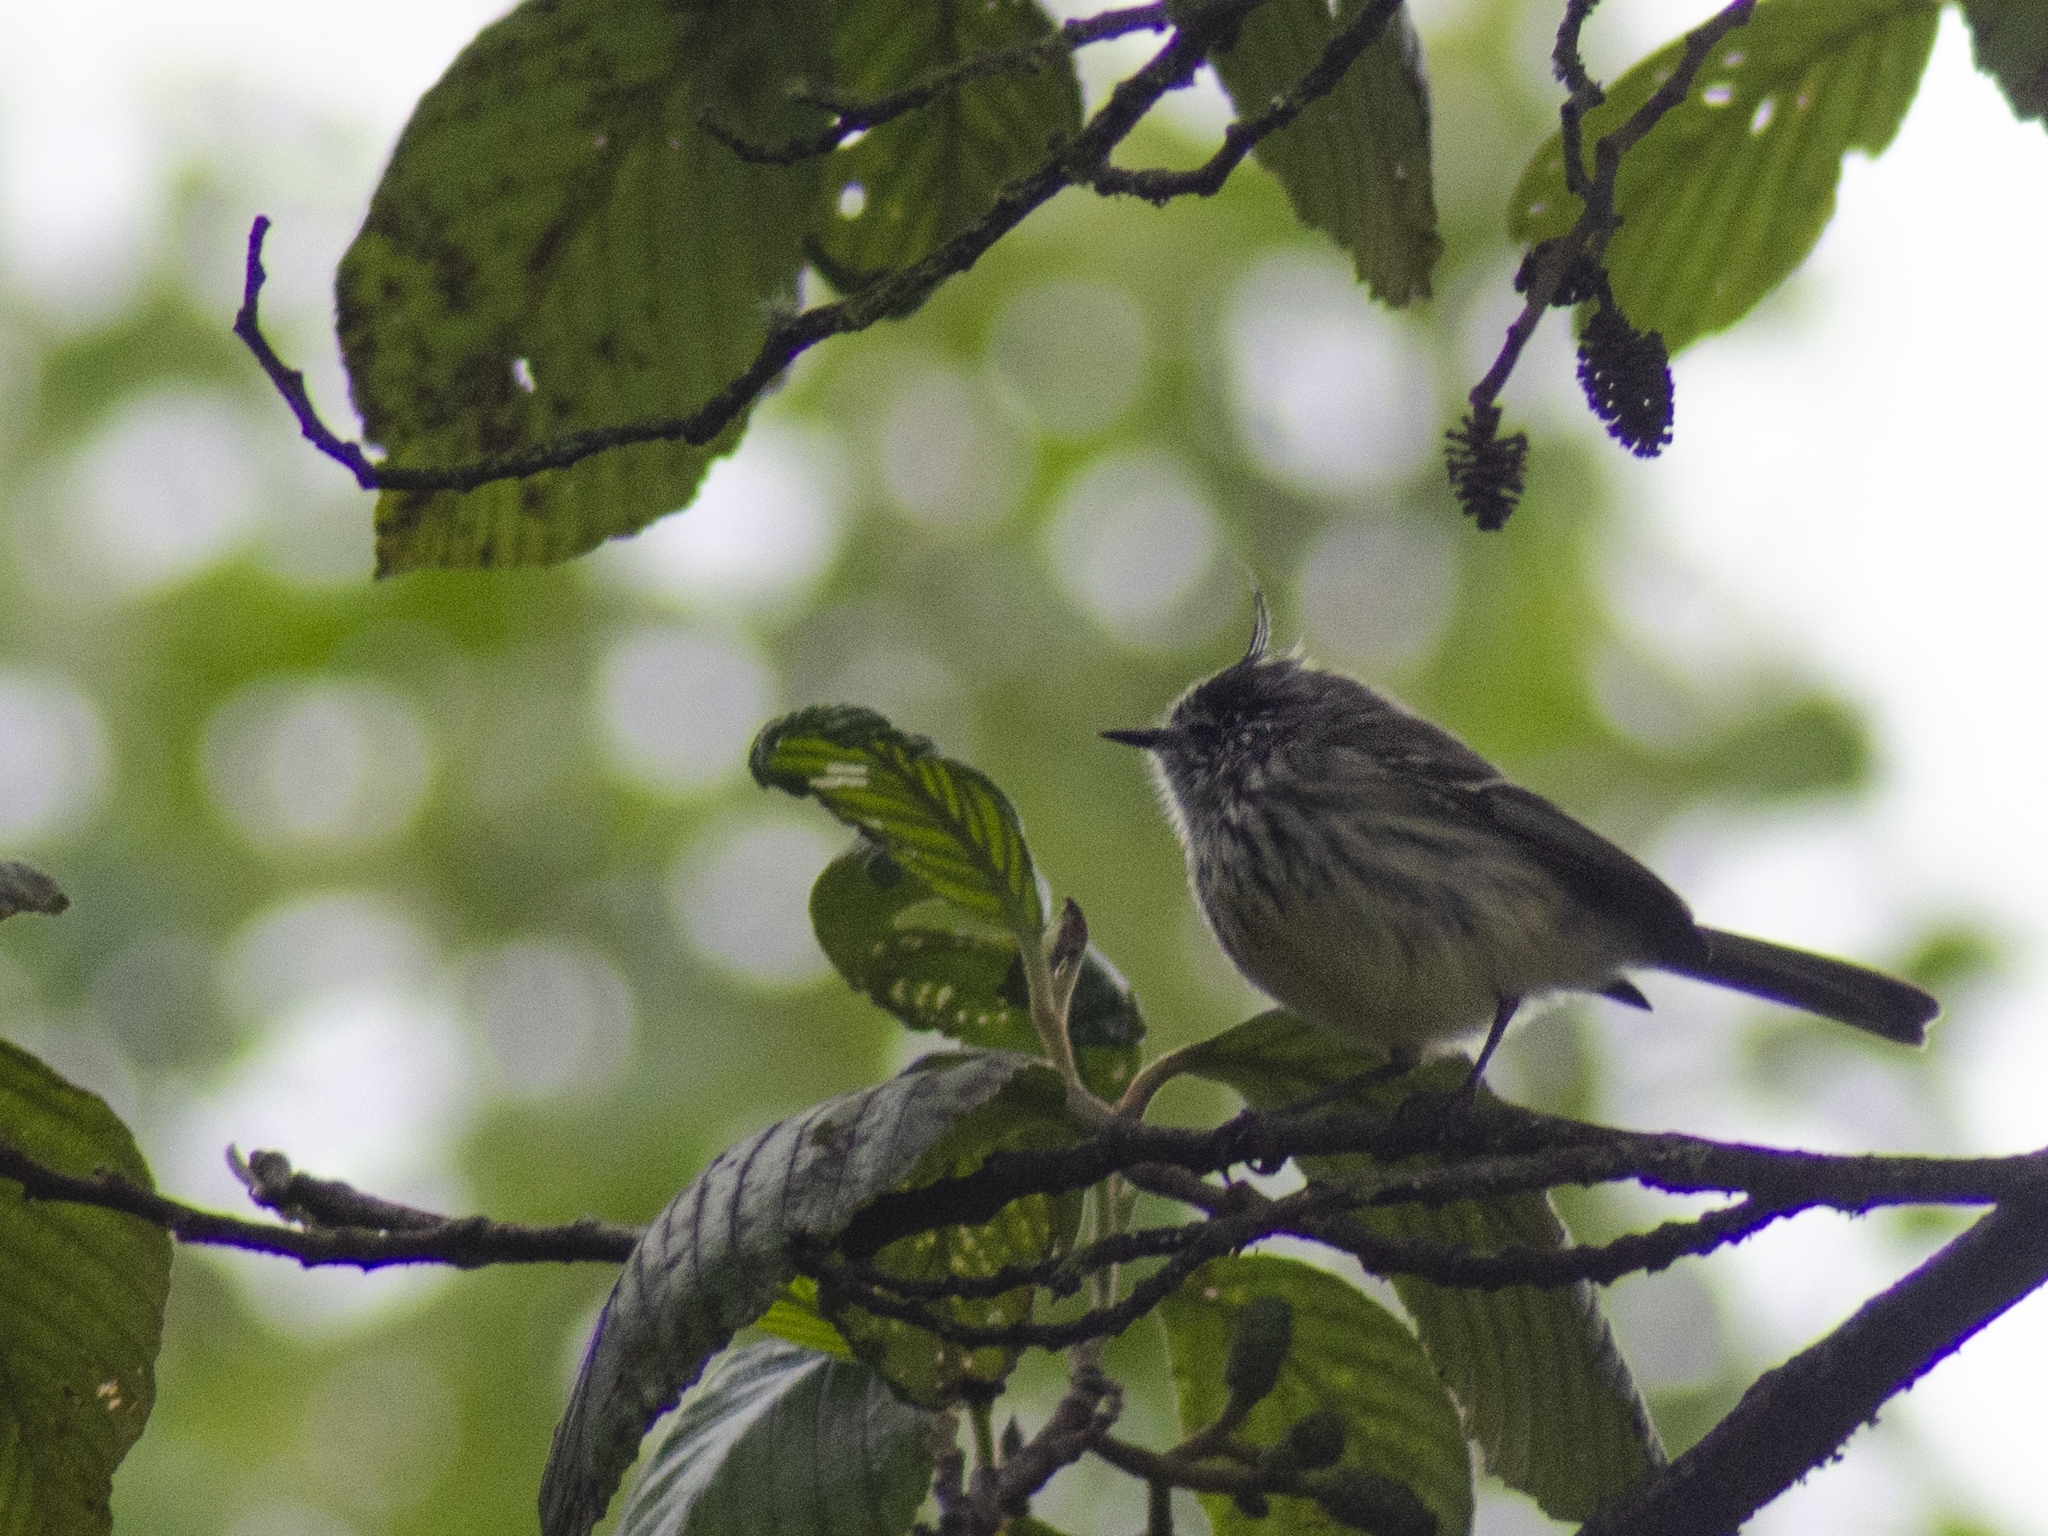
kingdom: Animalia
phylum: Chordata
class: Aves
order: Passeriformes
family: Tyrannidae
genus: Anairetes
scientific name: Anairetes parulus
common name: Tufted tit-tyrant
